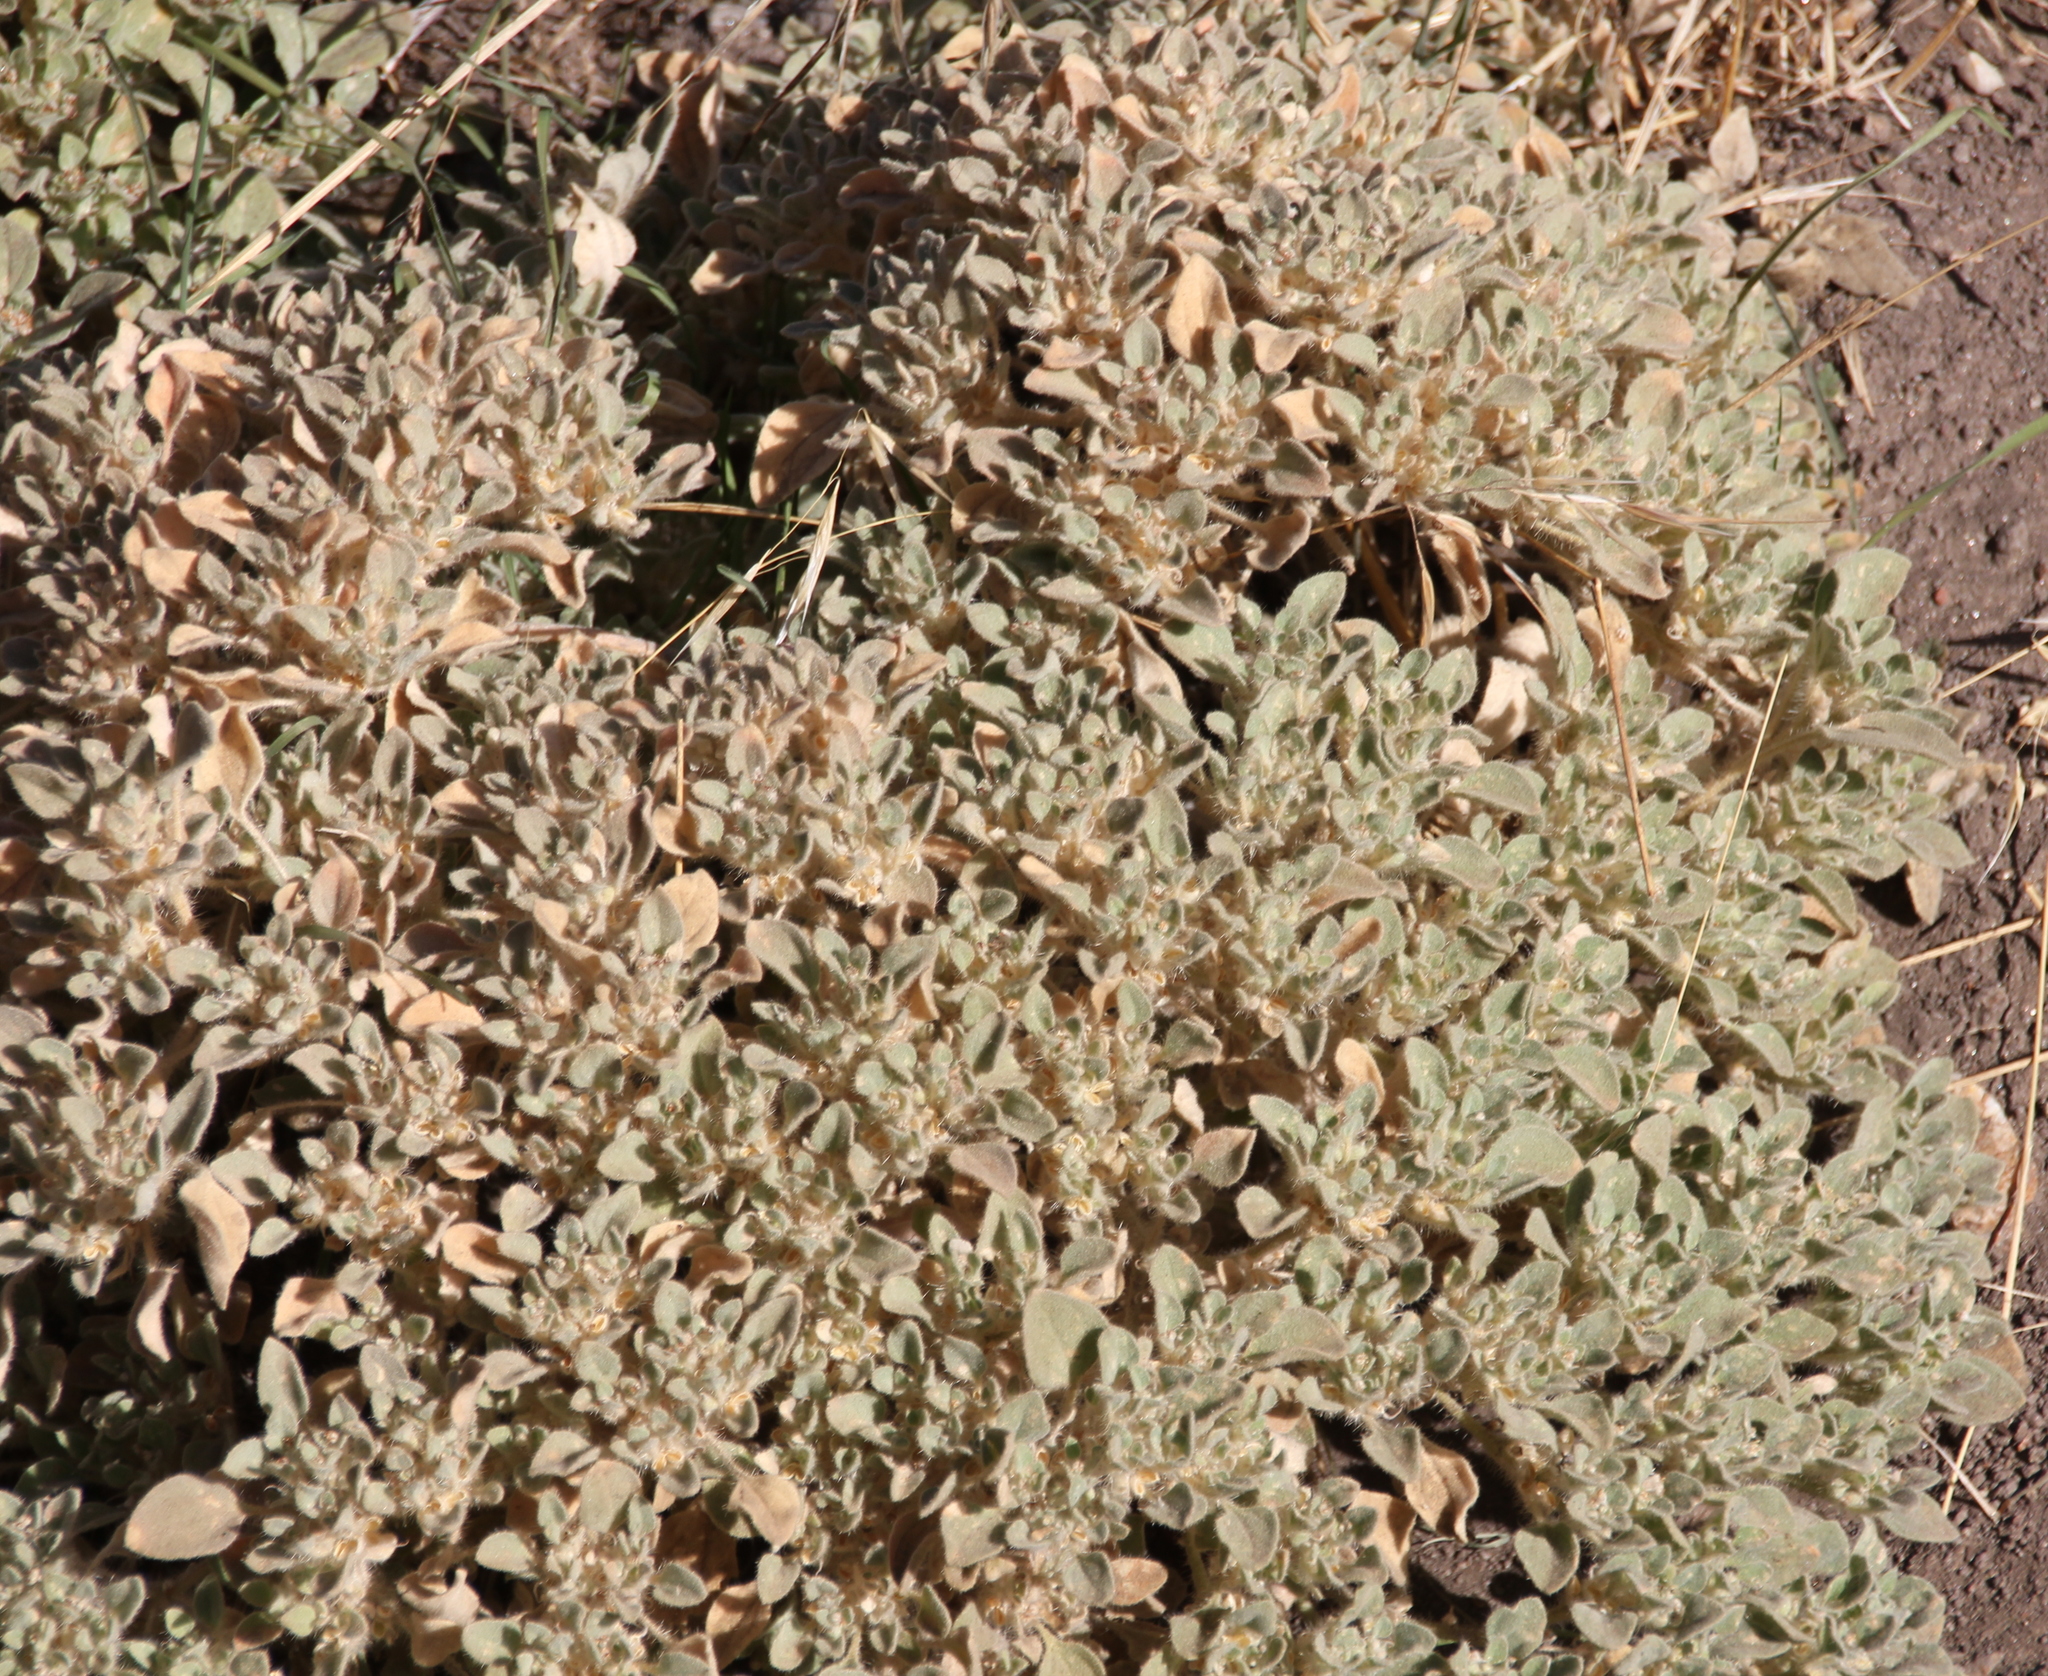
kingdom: Plantae
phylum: Tracheophyta
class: Magnoliopsida
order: Malpighiales
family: Euphorbiaceae
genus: Croton
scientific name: Croton setiger
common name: Dove weed
